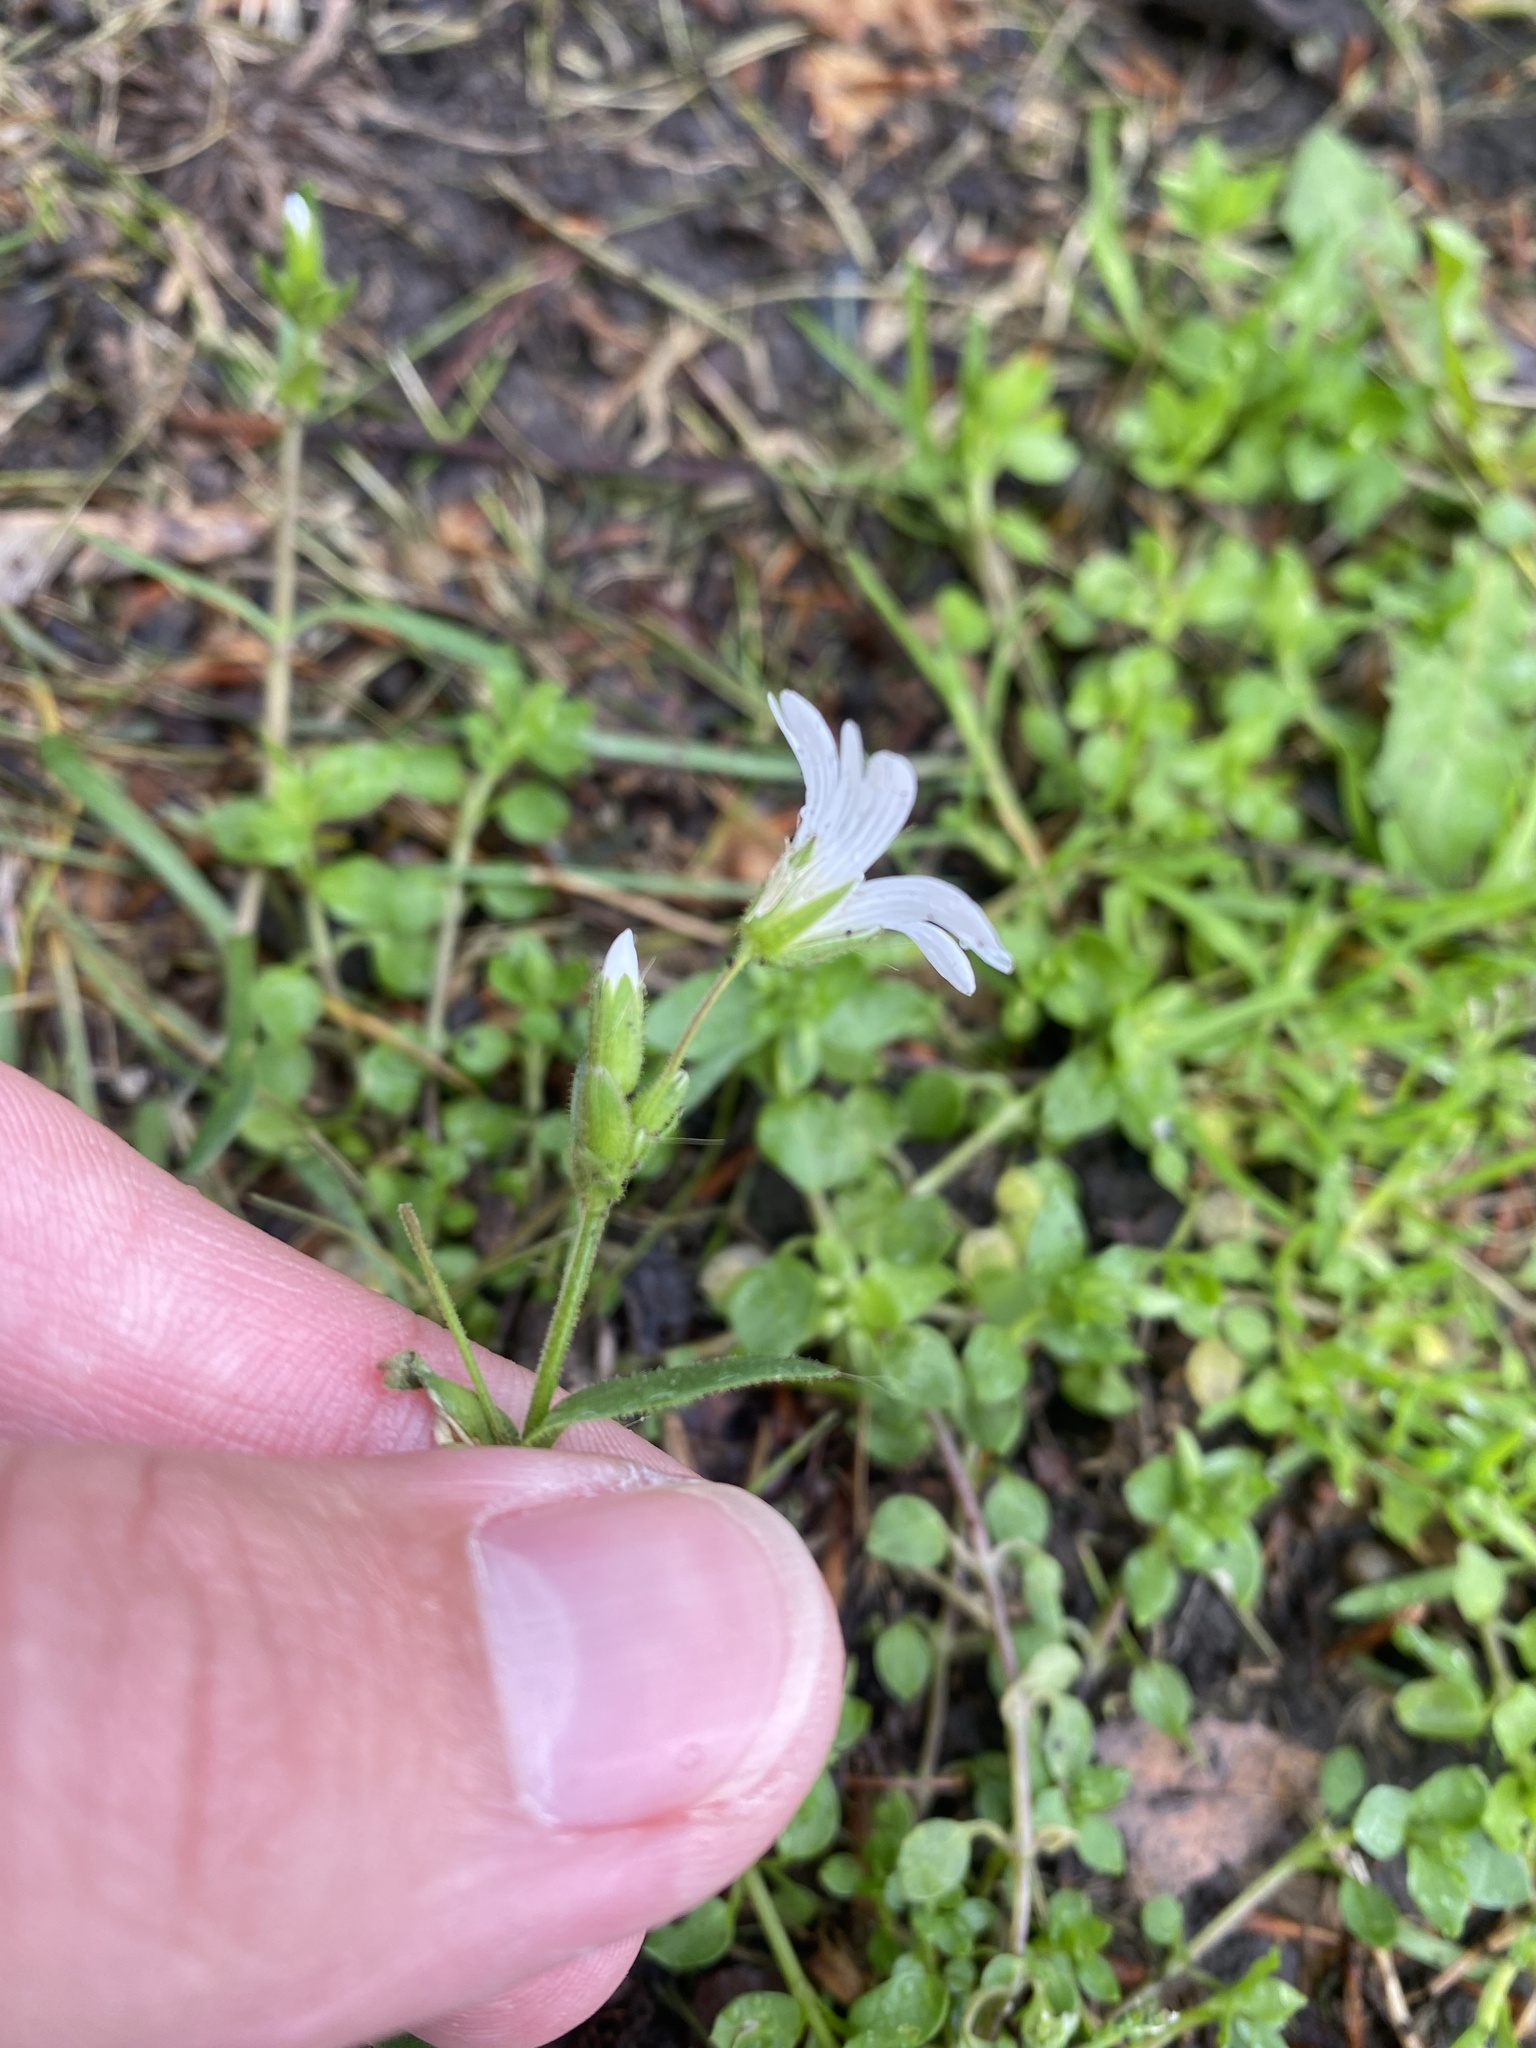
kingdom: Plantae
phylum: Tracheophyta
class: Magnoliopsida
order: Caryophyllales
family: Caryophyllaceae
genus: Dichodon
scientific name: Dichodon viscidum
